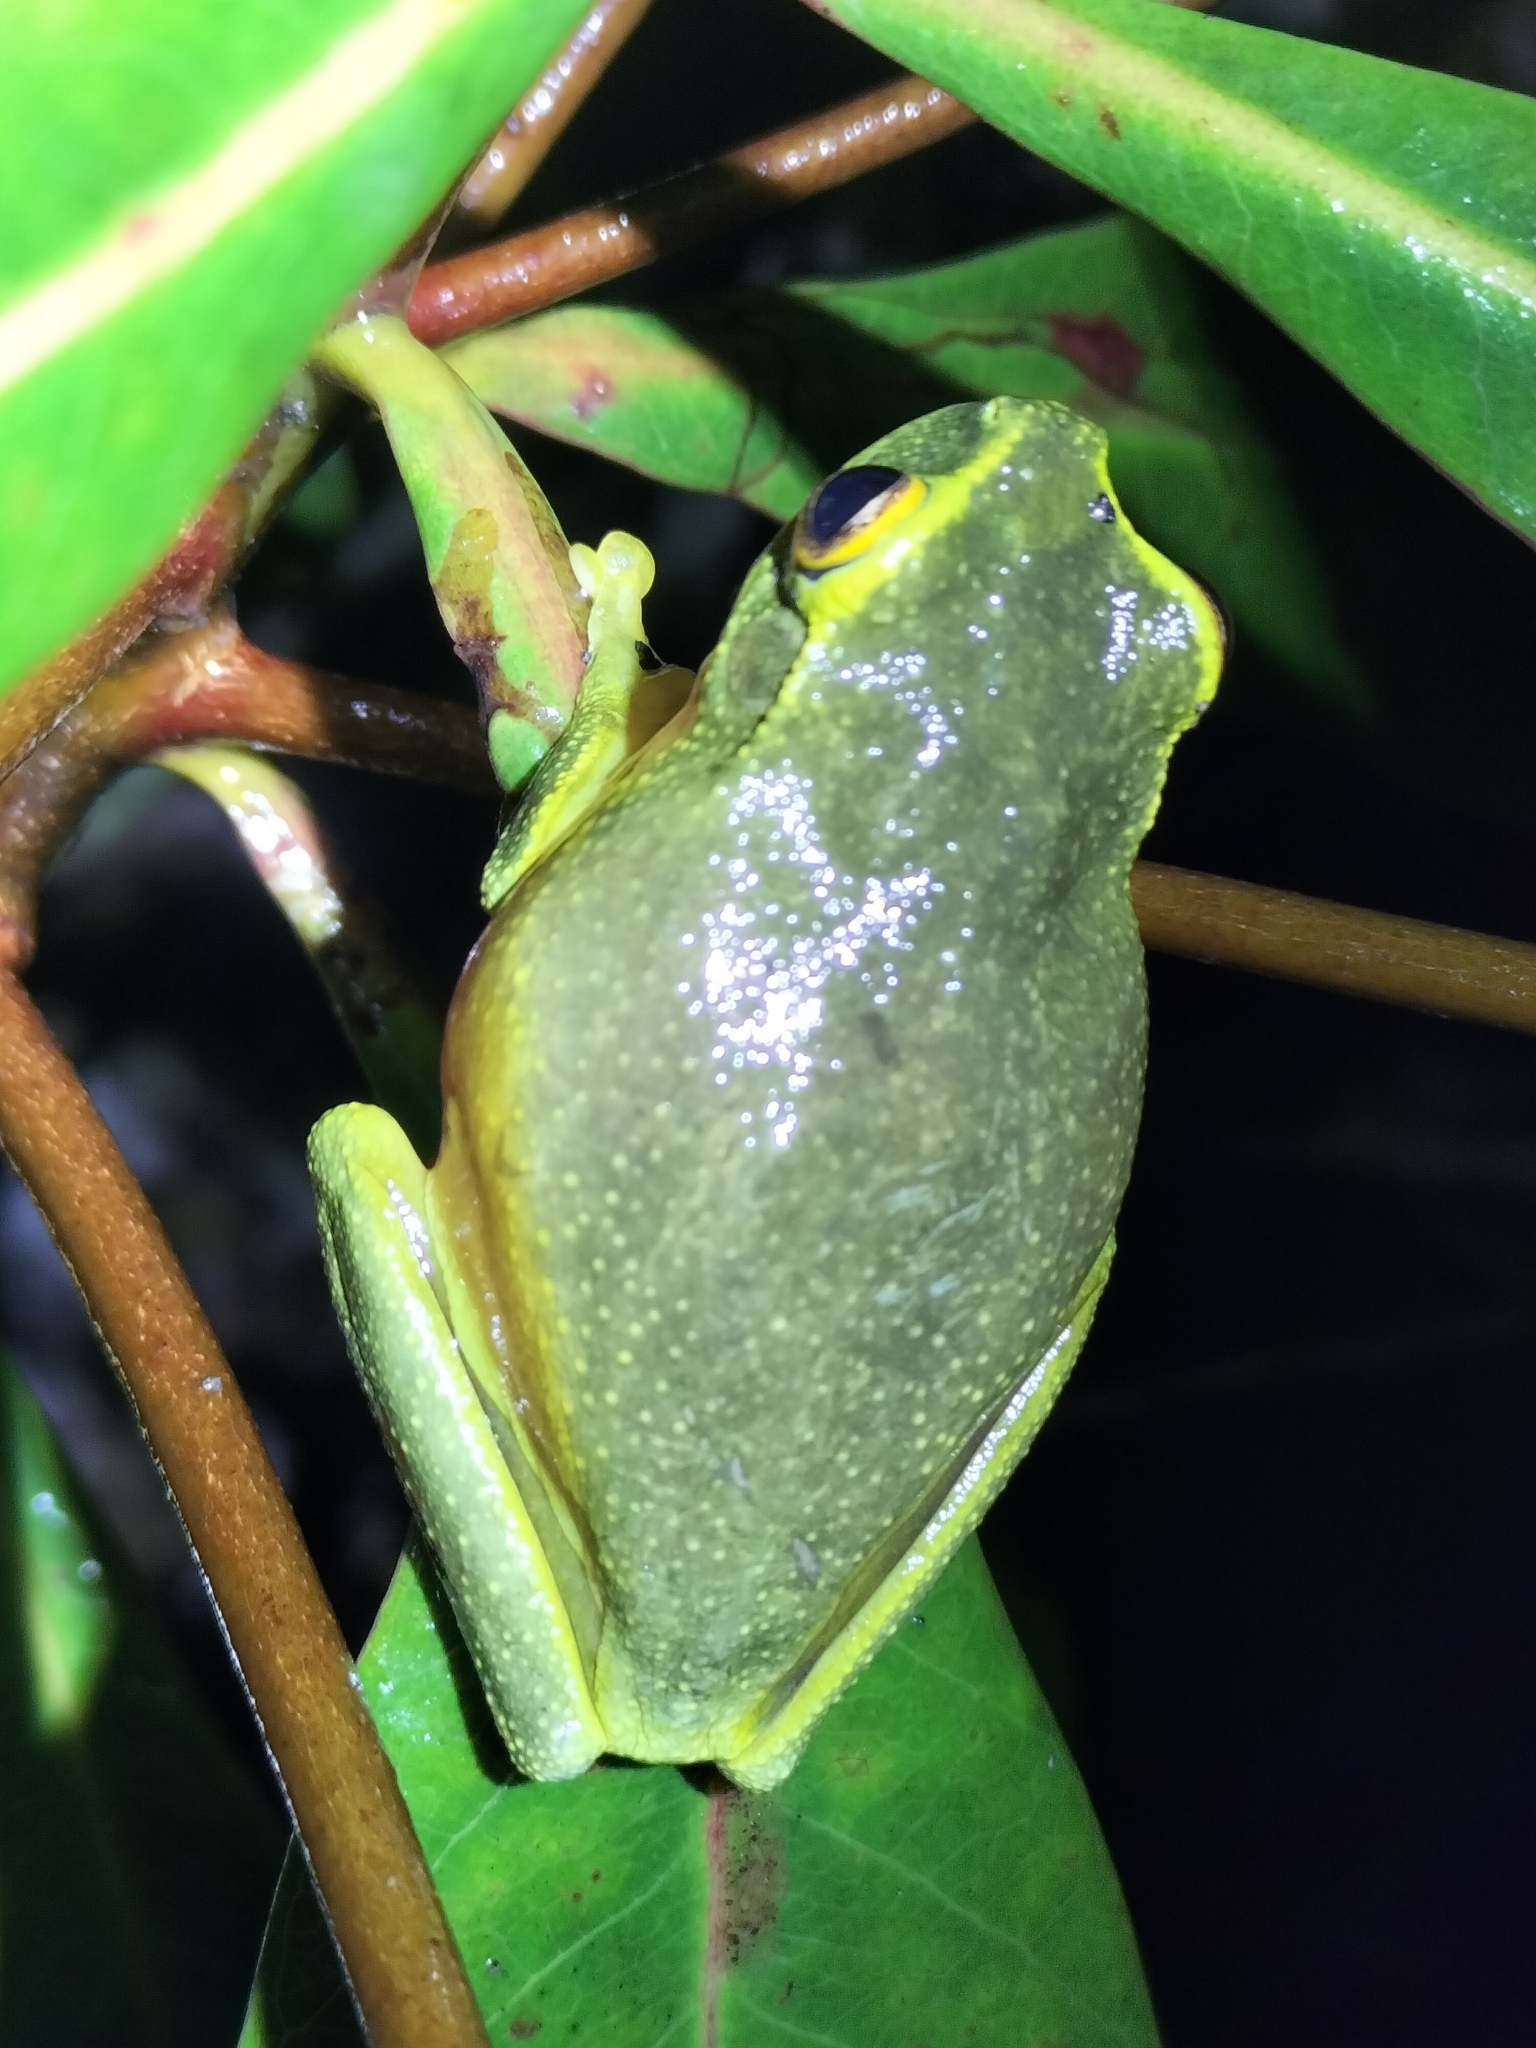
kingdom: Animalia
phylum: Chordata
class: Amphibia
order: Anura
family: Pelodryadidae
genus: Ranoidea
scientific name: Ranoidea gracilenta
